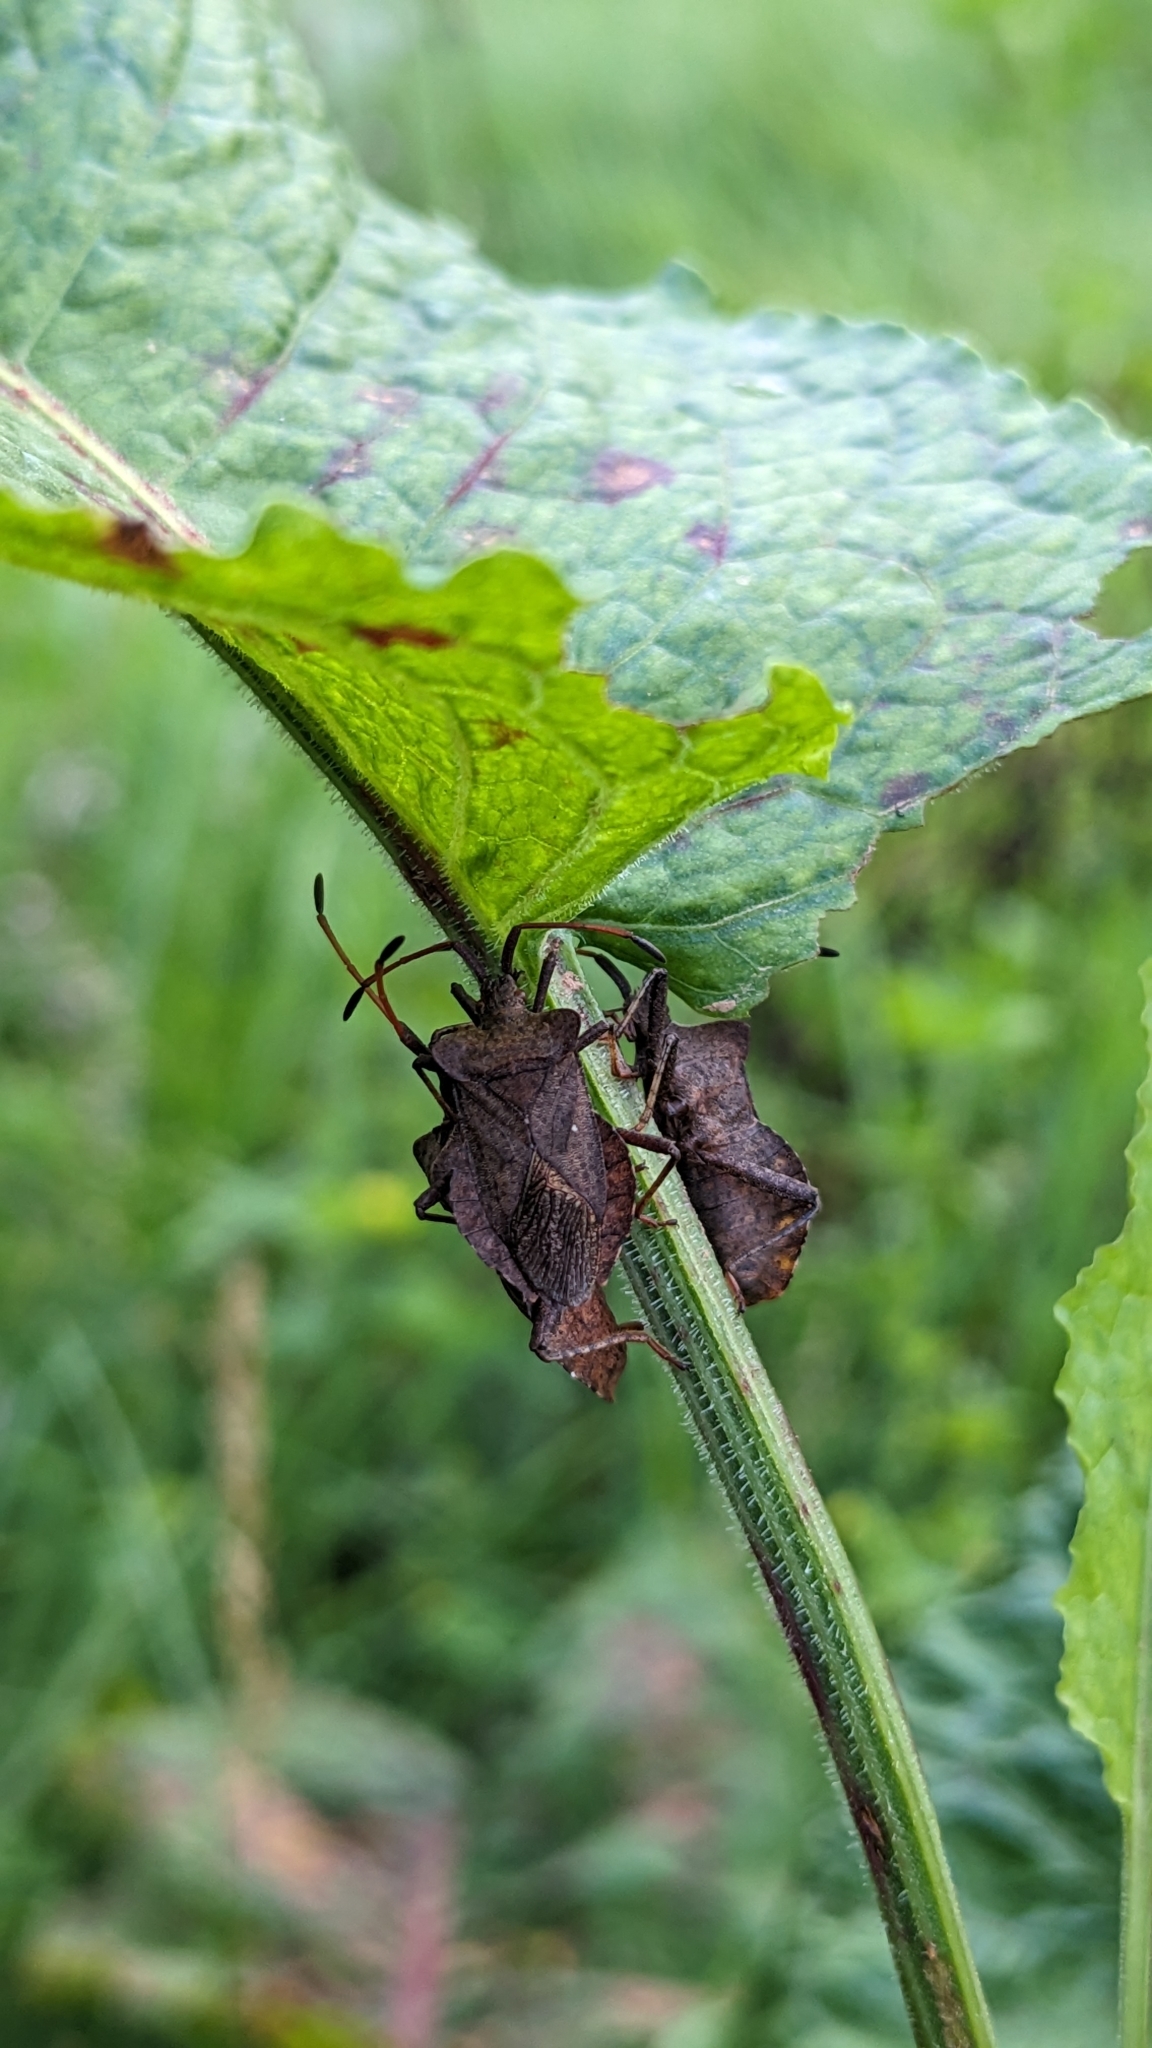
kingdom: Animalia
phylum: Arthropoda
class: Insecta
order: Hemiptera
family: Coreidae
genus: Coreus
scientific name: Coreus marginatus
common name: Dock bug
